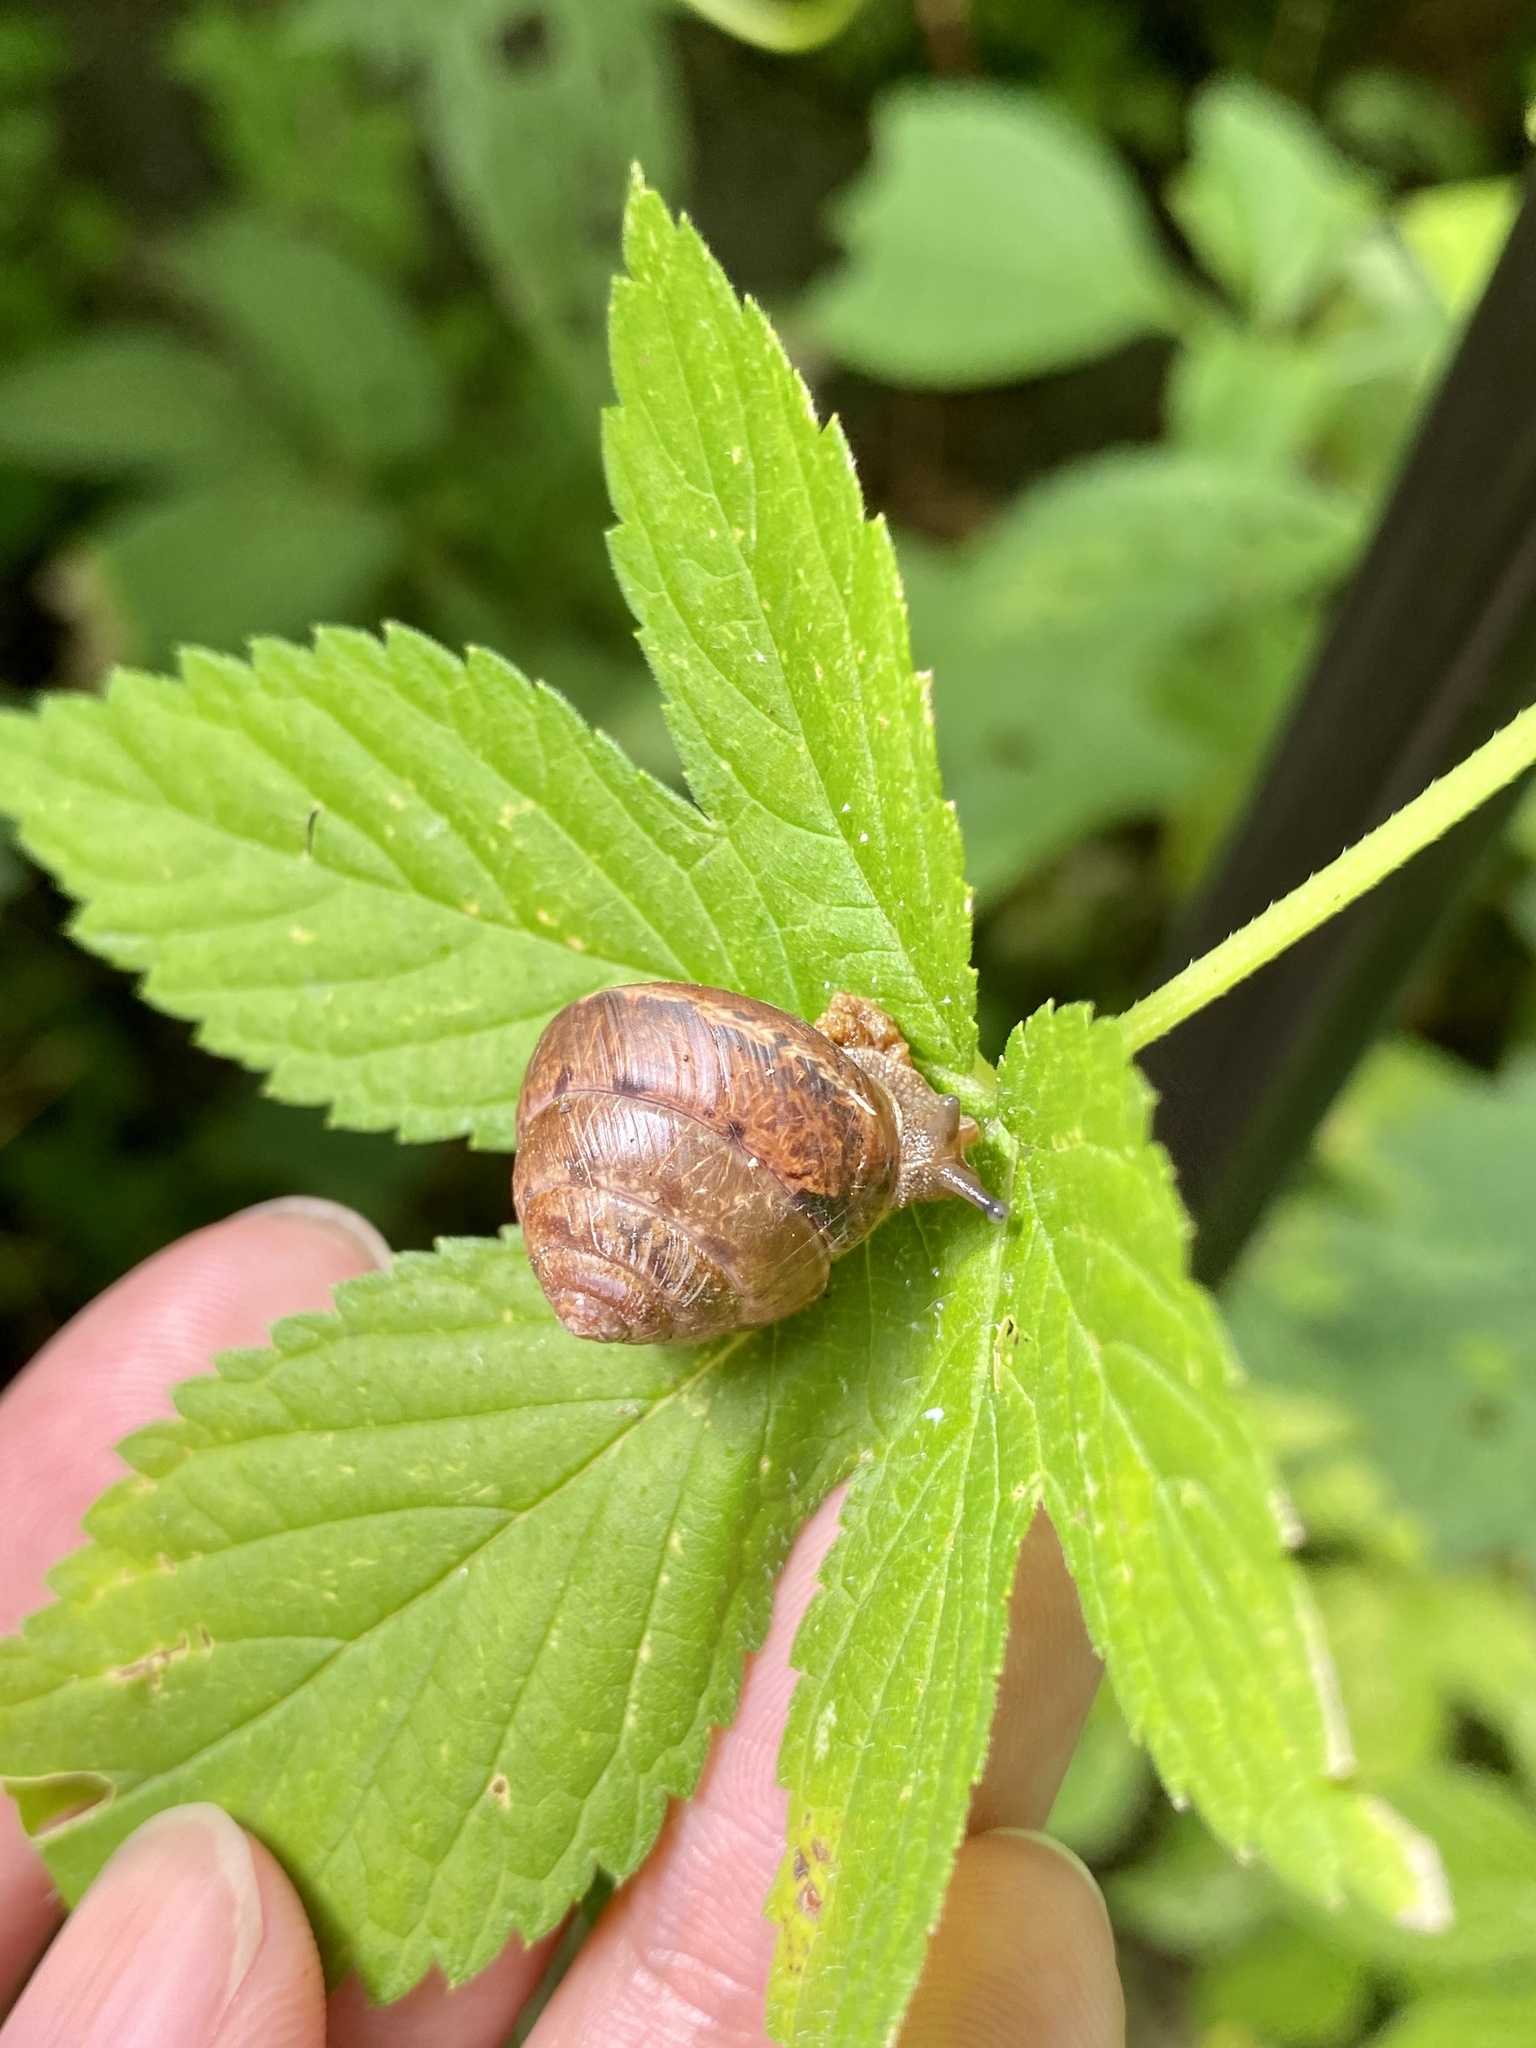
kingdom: Animalia
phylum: Mollusca
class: Gastropoda
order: Stylommatophora
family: Camaenidae
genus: Satsuma
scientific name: Satsuma japonica
